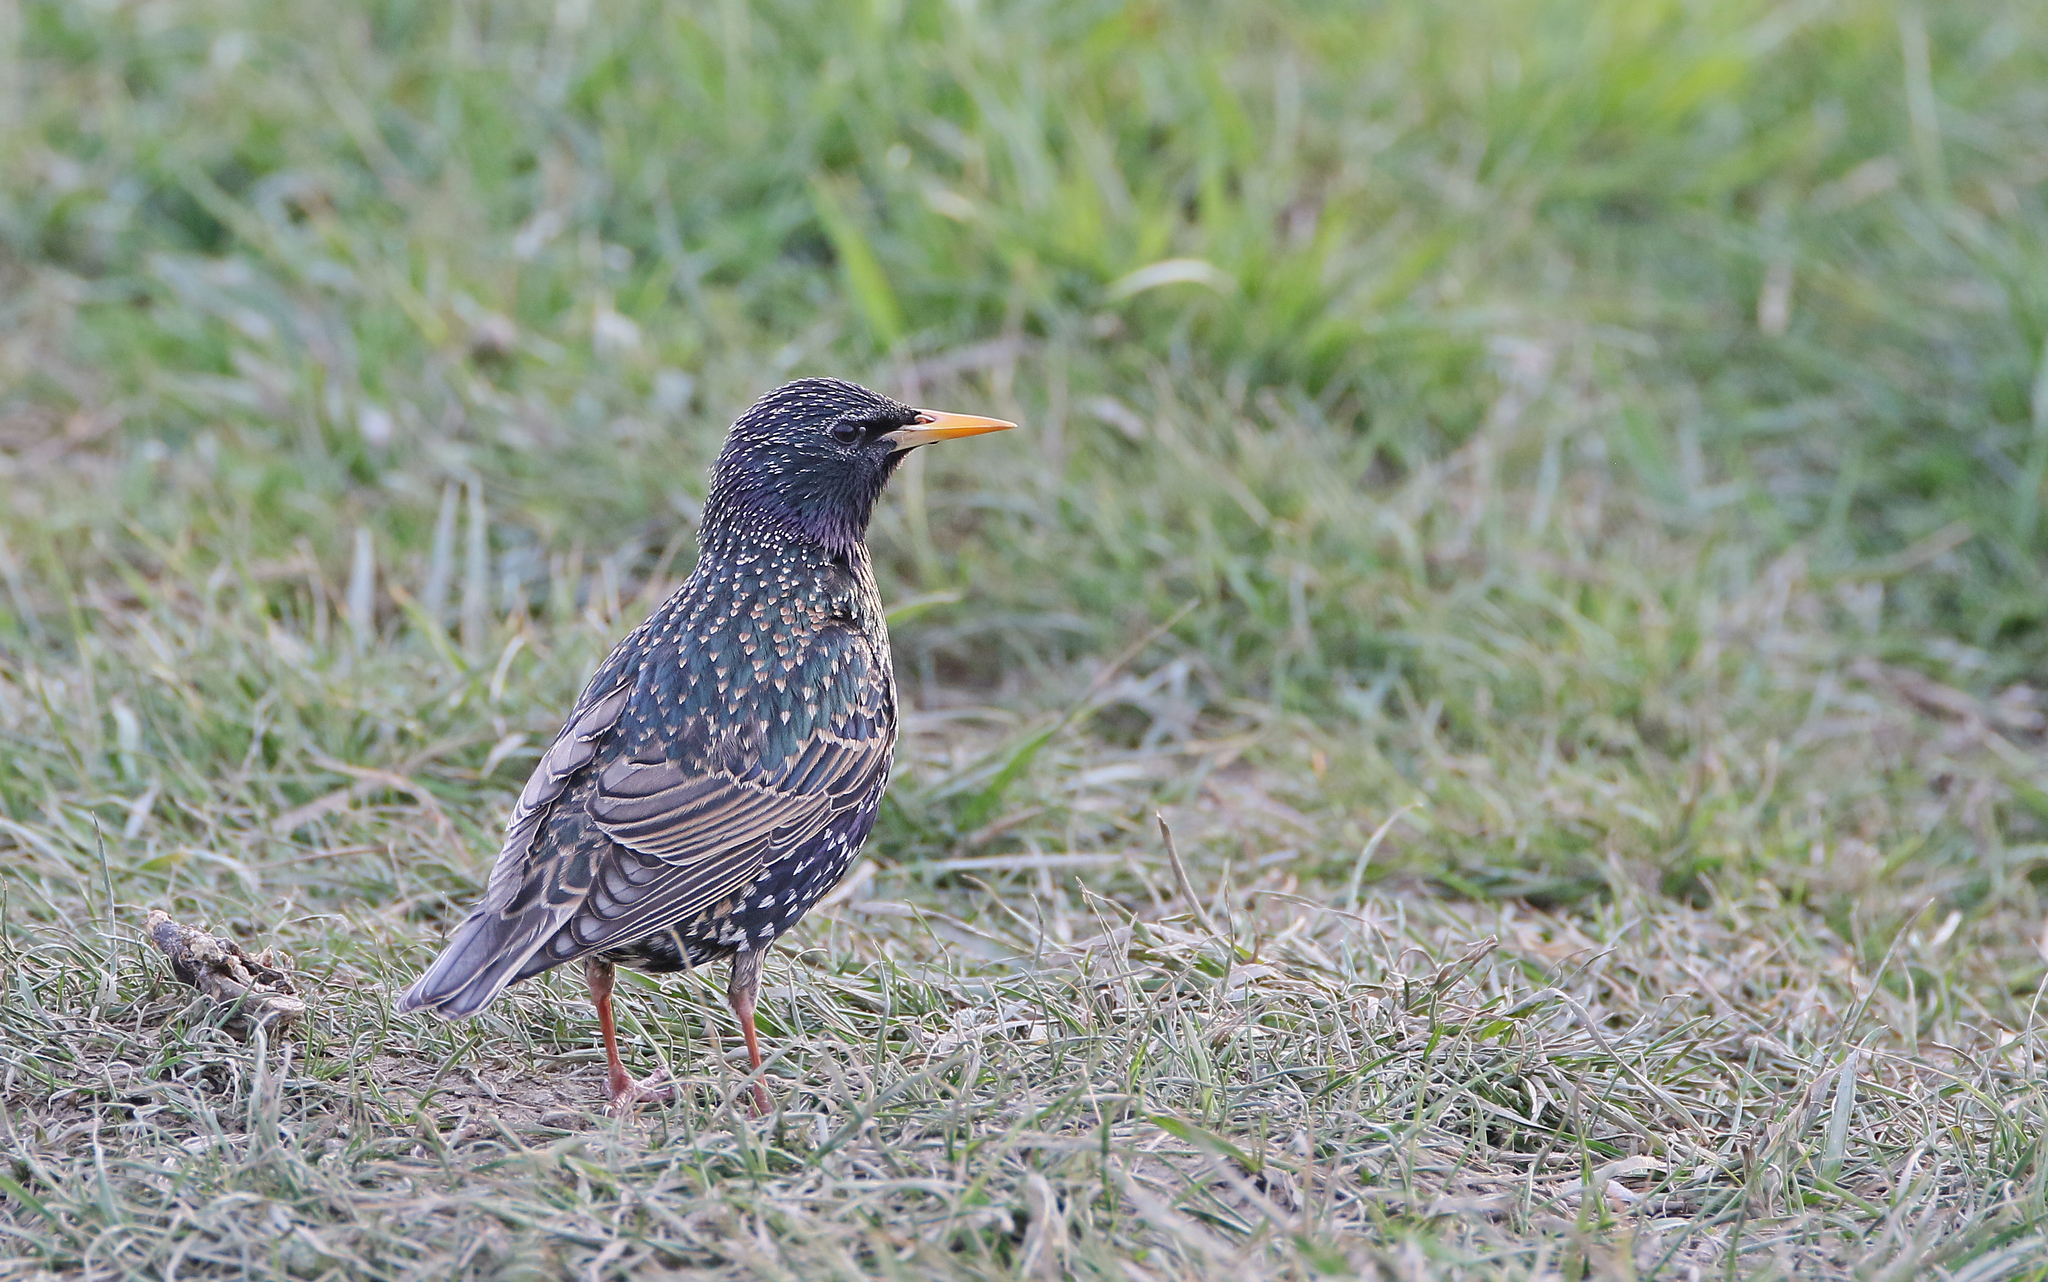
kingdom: Animalia
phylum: Chordata
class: Aves
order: Passeriformes
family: Sturnidae
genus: Sturnus
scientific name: Sturnus vulgaris
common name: Common starling
